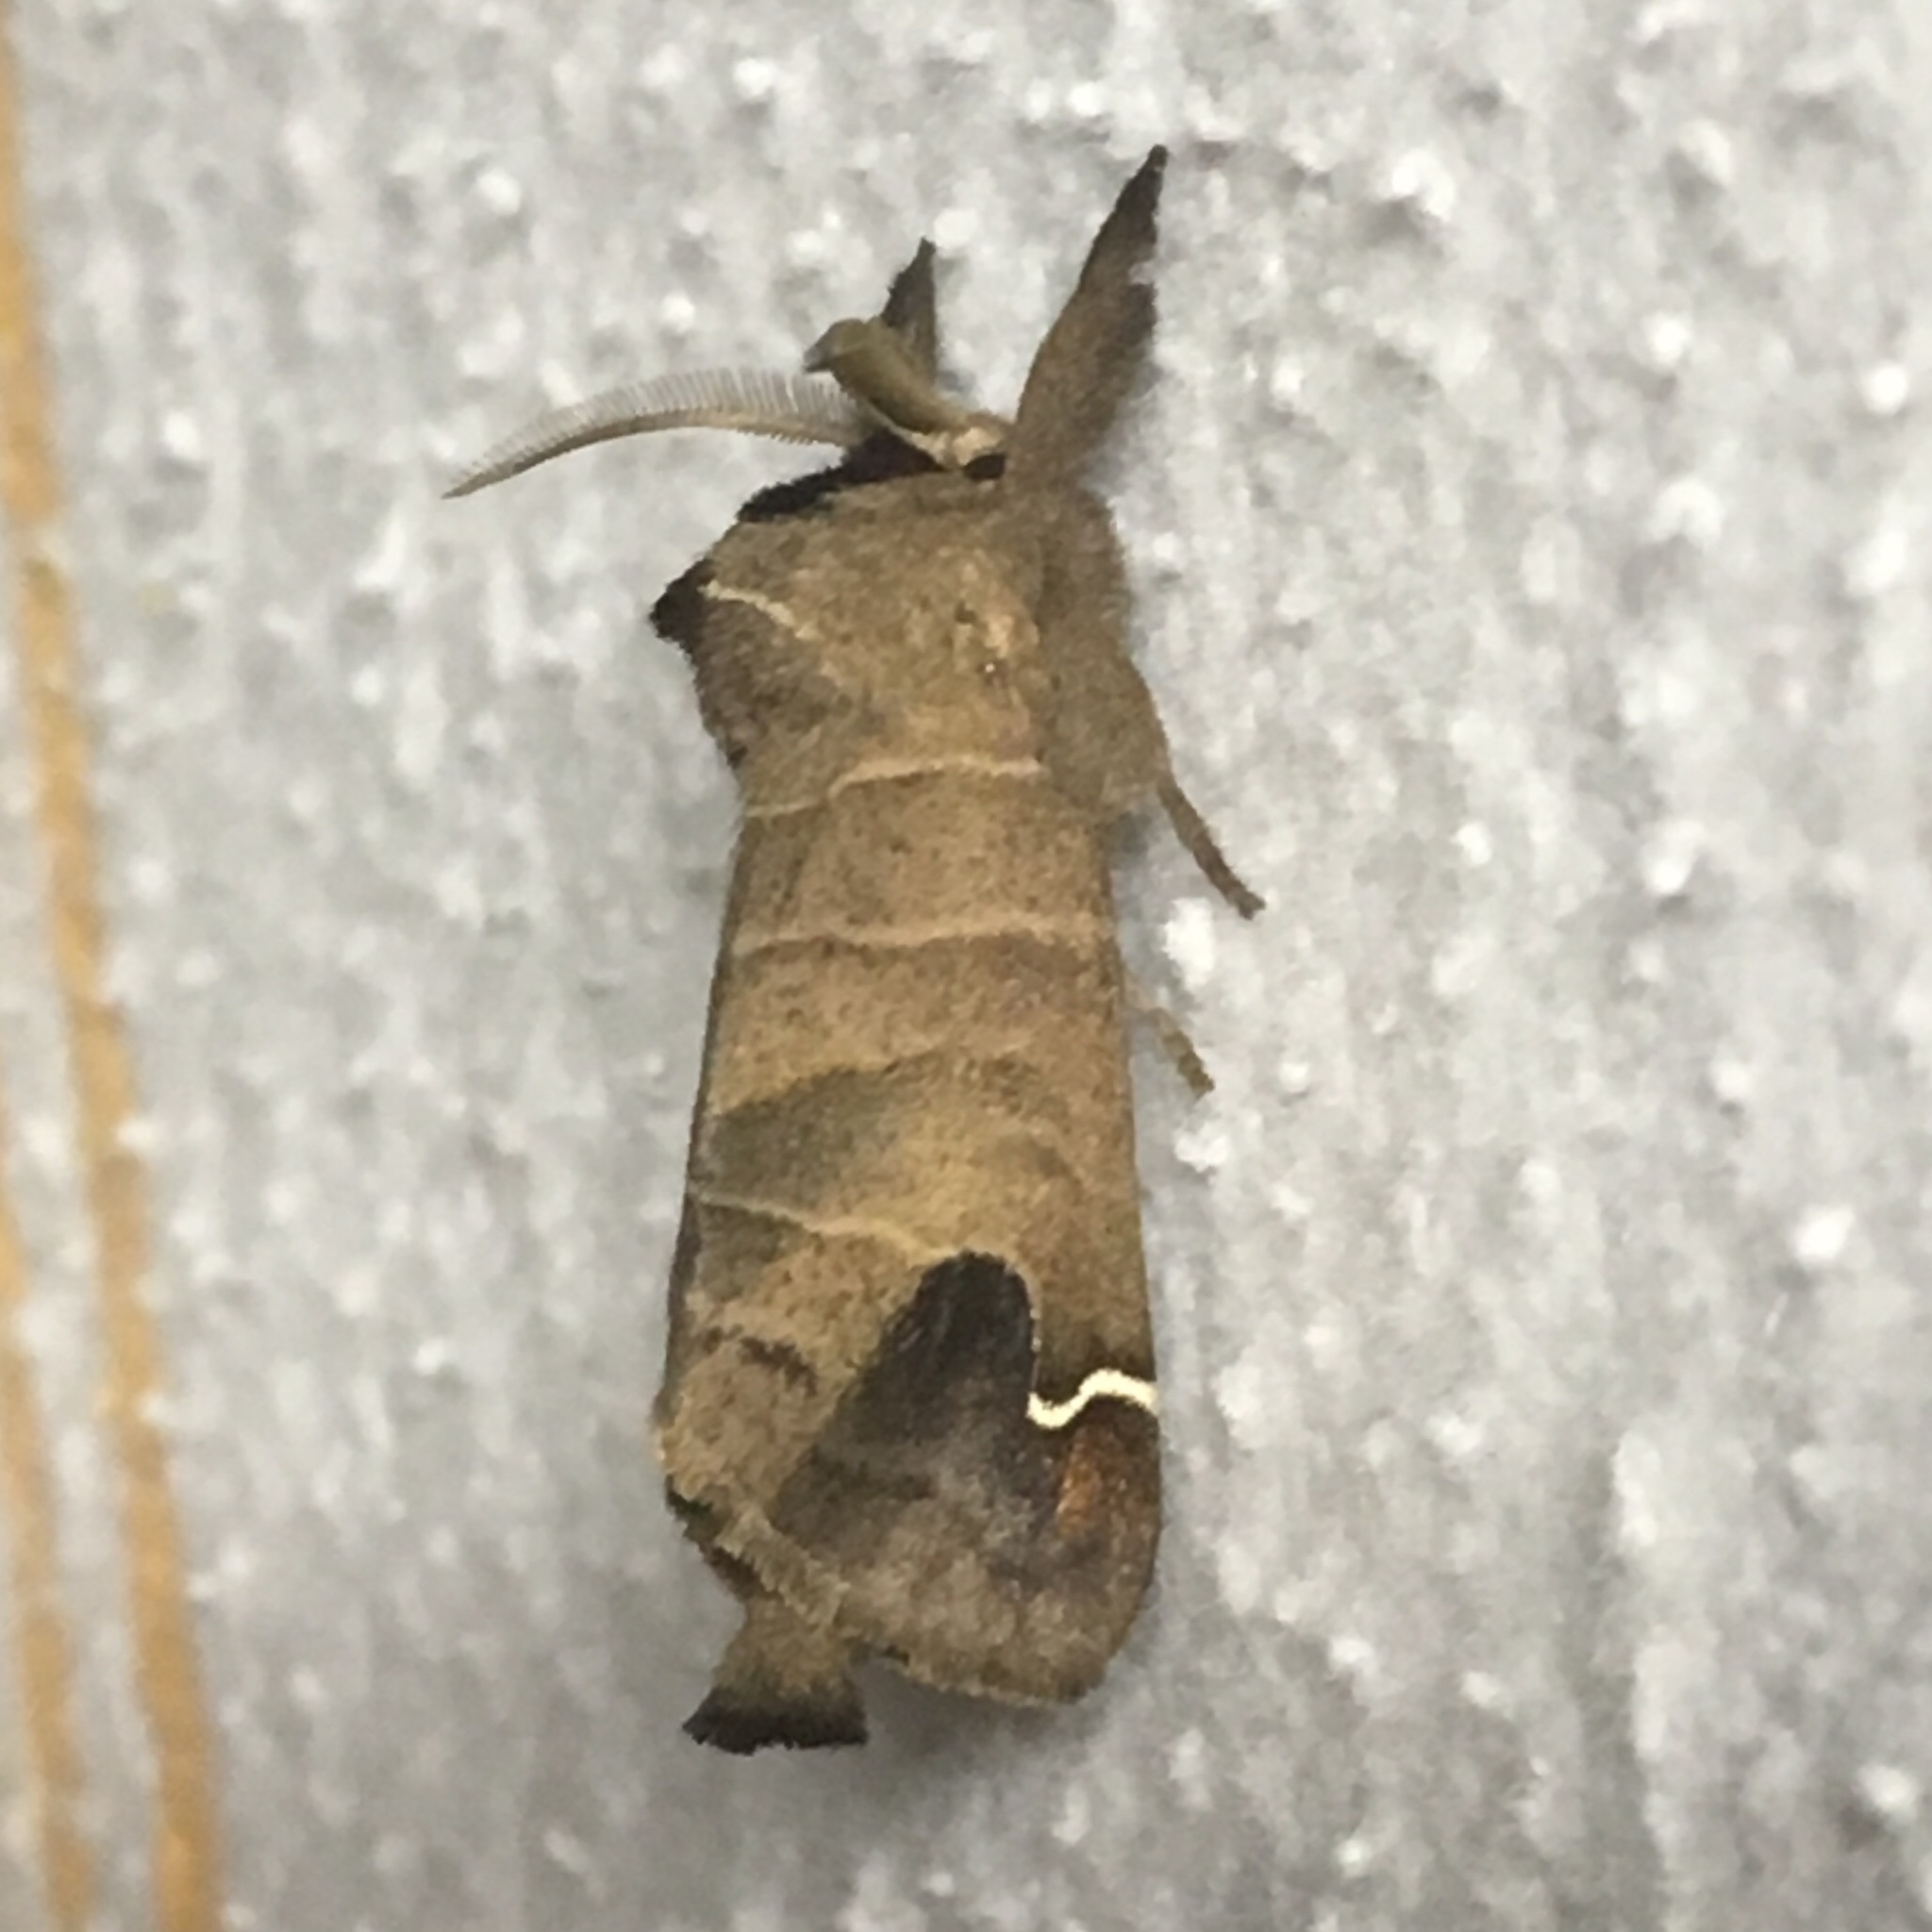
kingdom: Animalia
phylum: Arthropoda
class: Insecta
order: Lepidoptera
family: Notodontidae
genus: Clostera
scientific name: Clostera albosigma
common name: Sigmoid prominent
